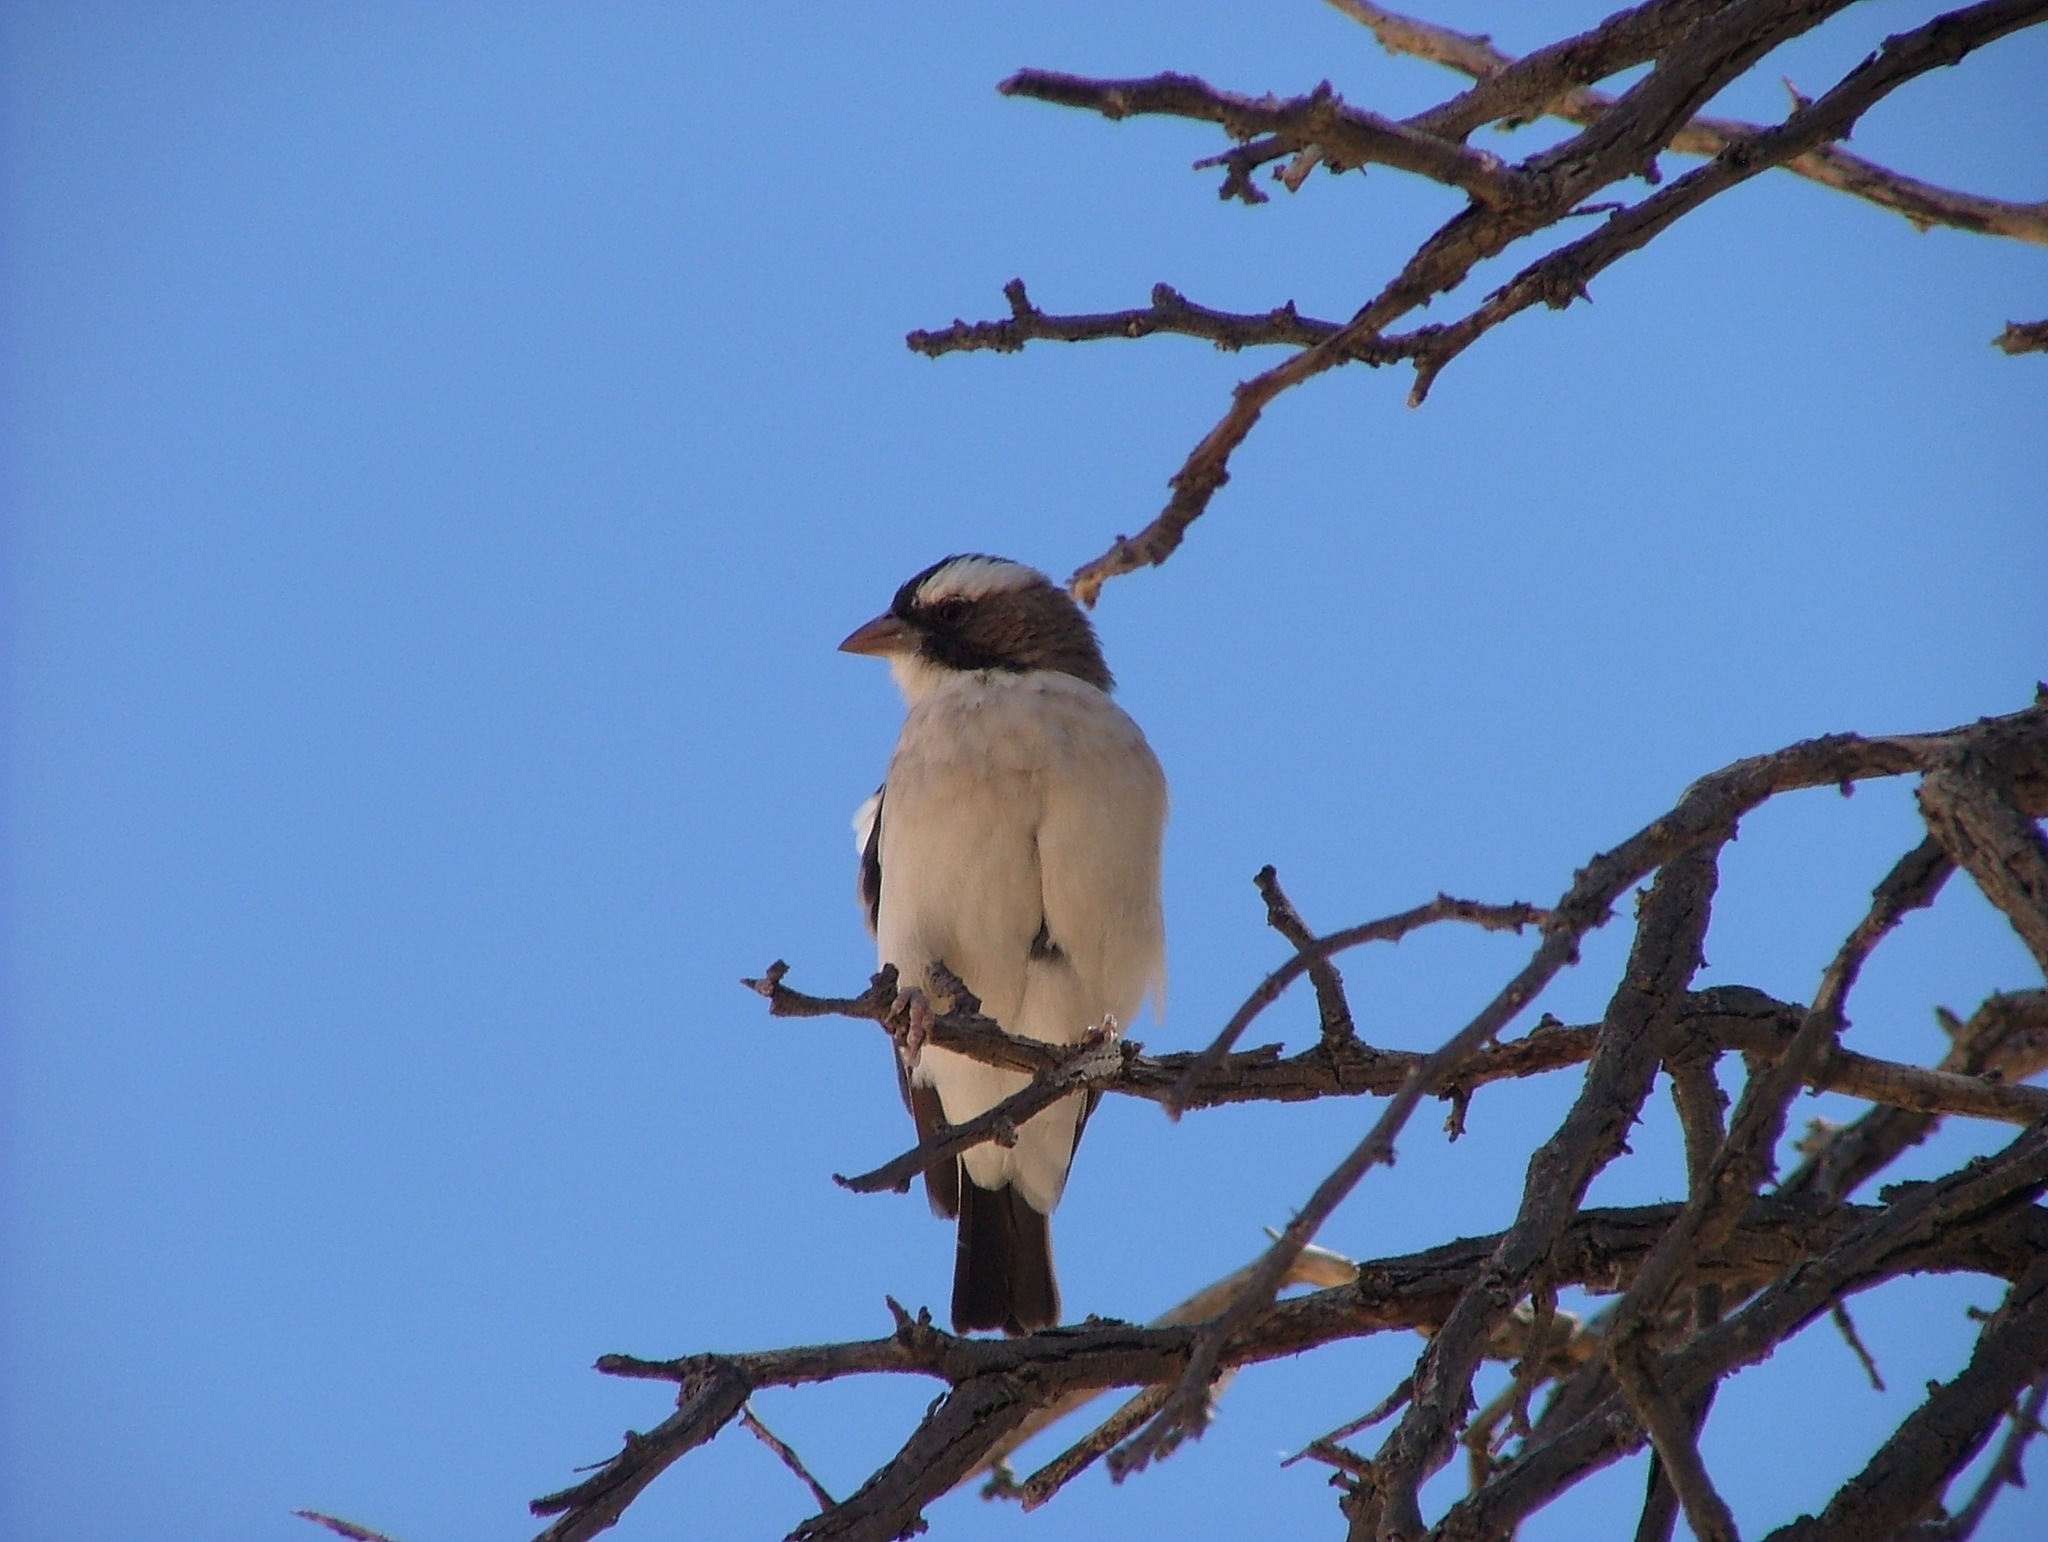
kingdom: Animalia
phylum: Chordata
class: Aves
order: Passeriformes
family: Passeridae
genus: Plocepasser
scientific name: Plocepasser mahali
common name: White-browed sparrow-weaver
